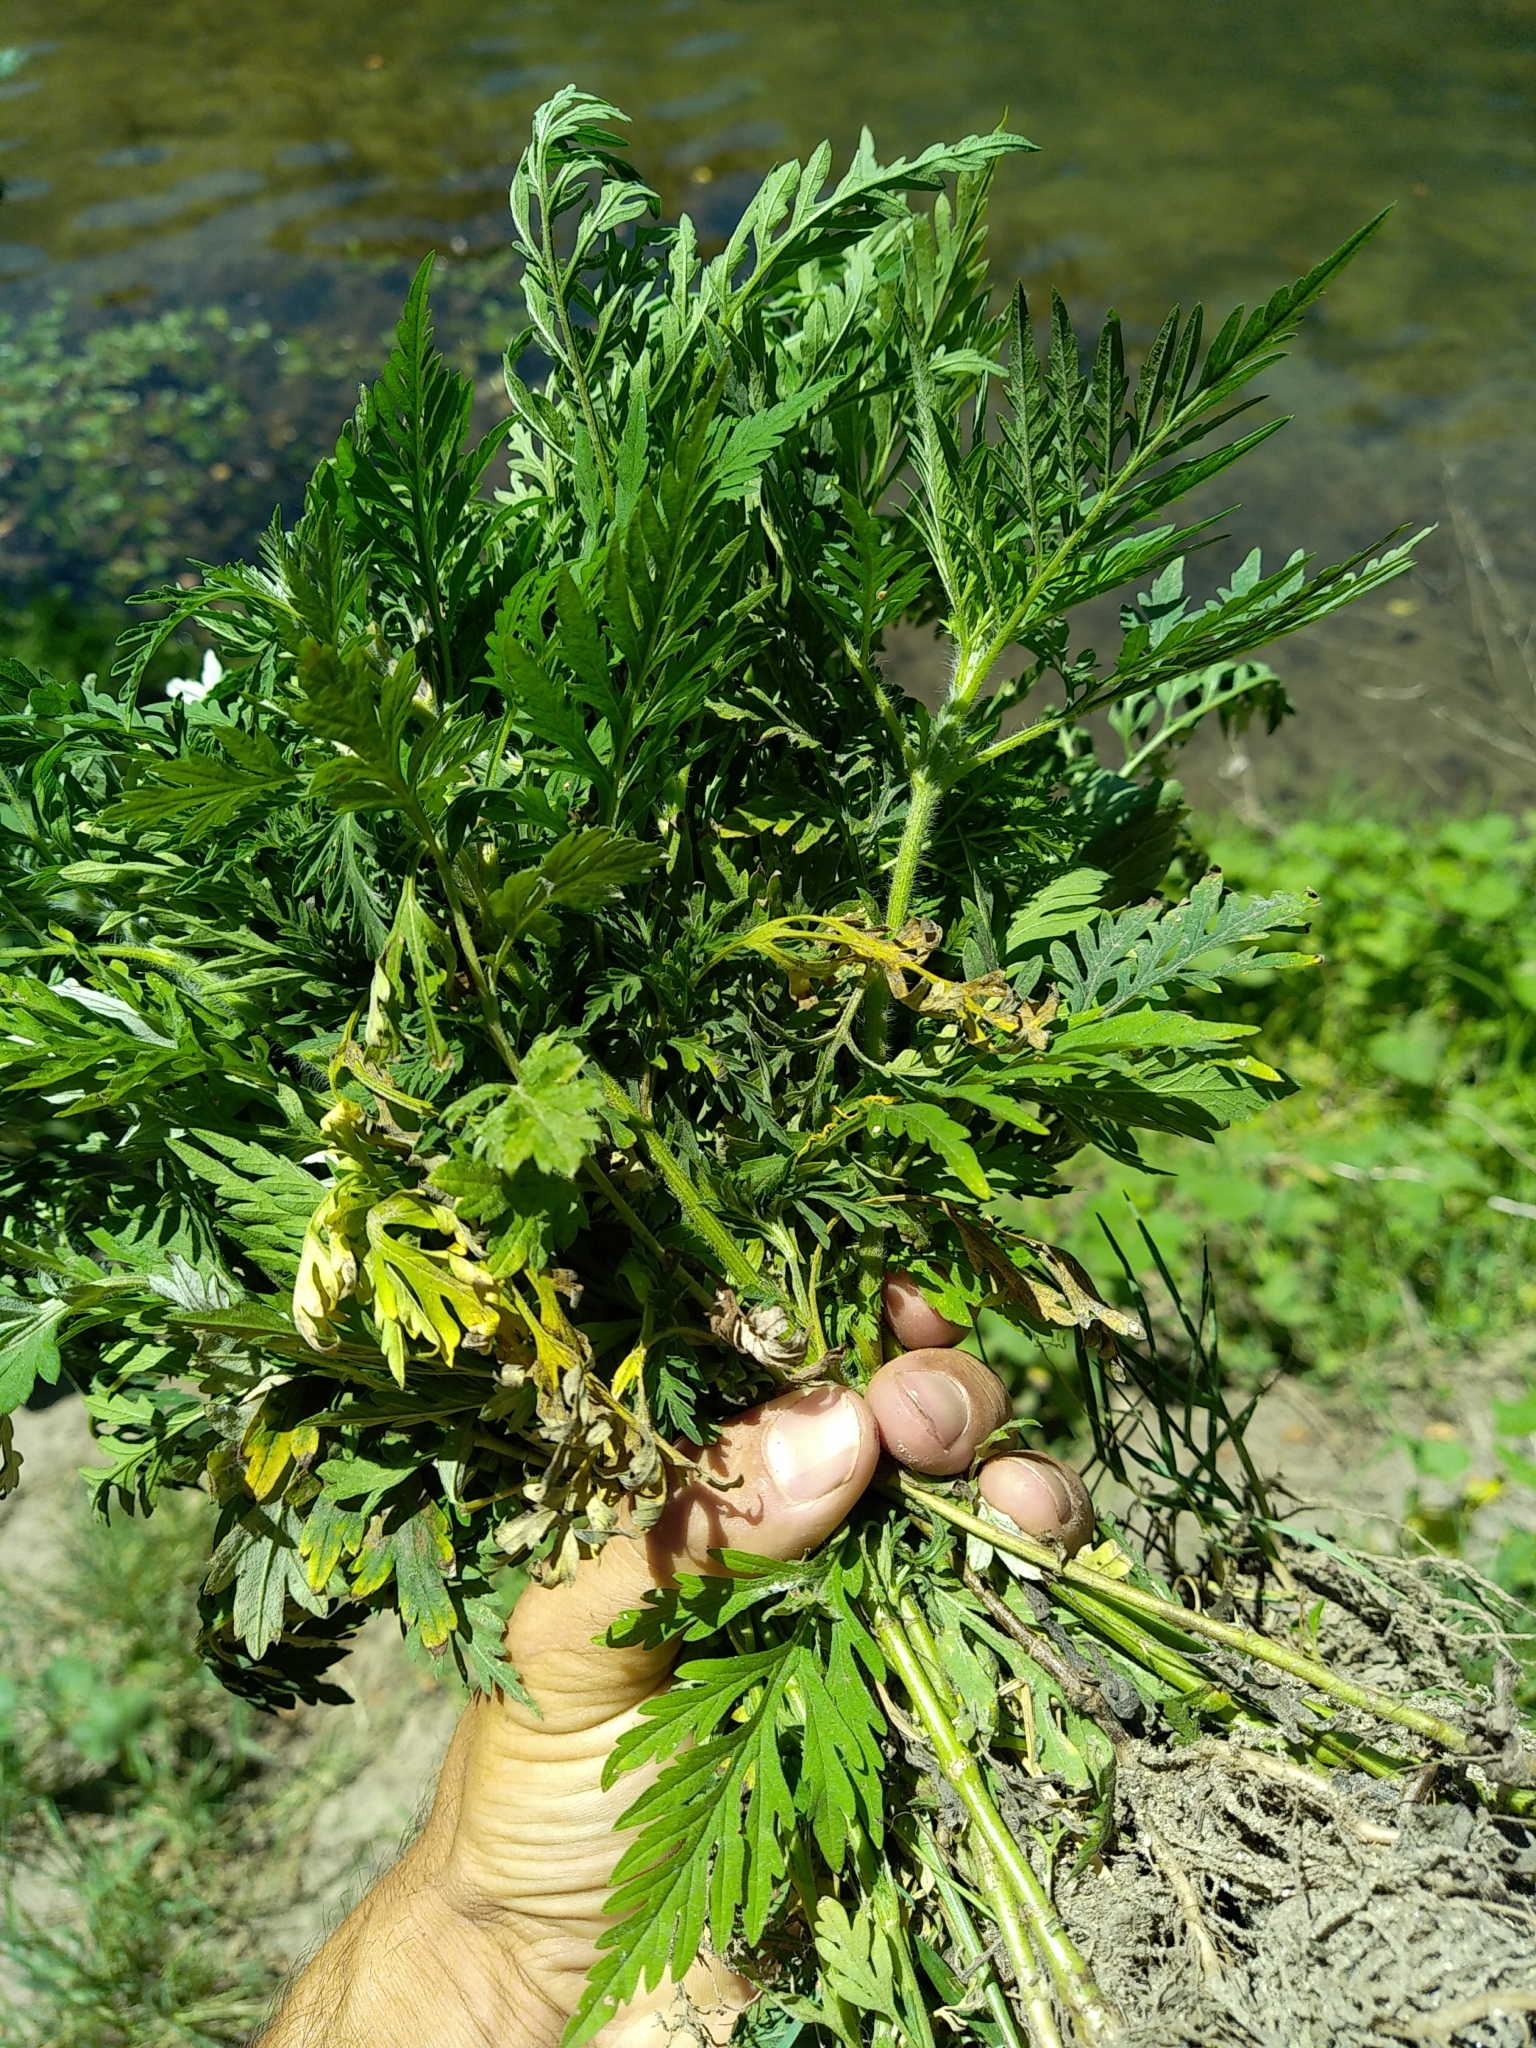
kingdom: Plantae
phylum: Tracheophyta
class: Magnoliopsida
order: Asterales
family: Asteraceae
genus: Ambrosia
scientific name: Ambrosia artemisiifolia
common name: Annual ragweed
